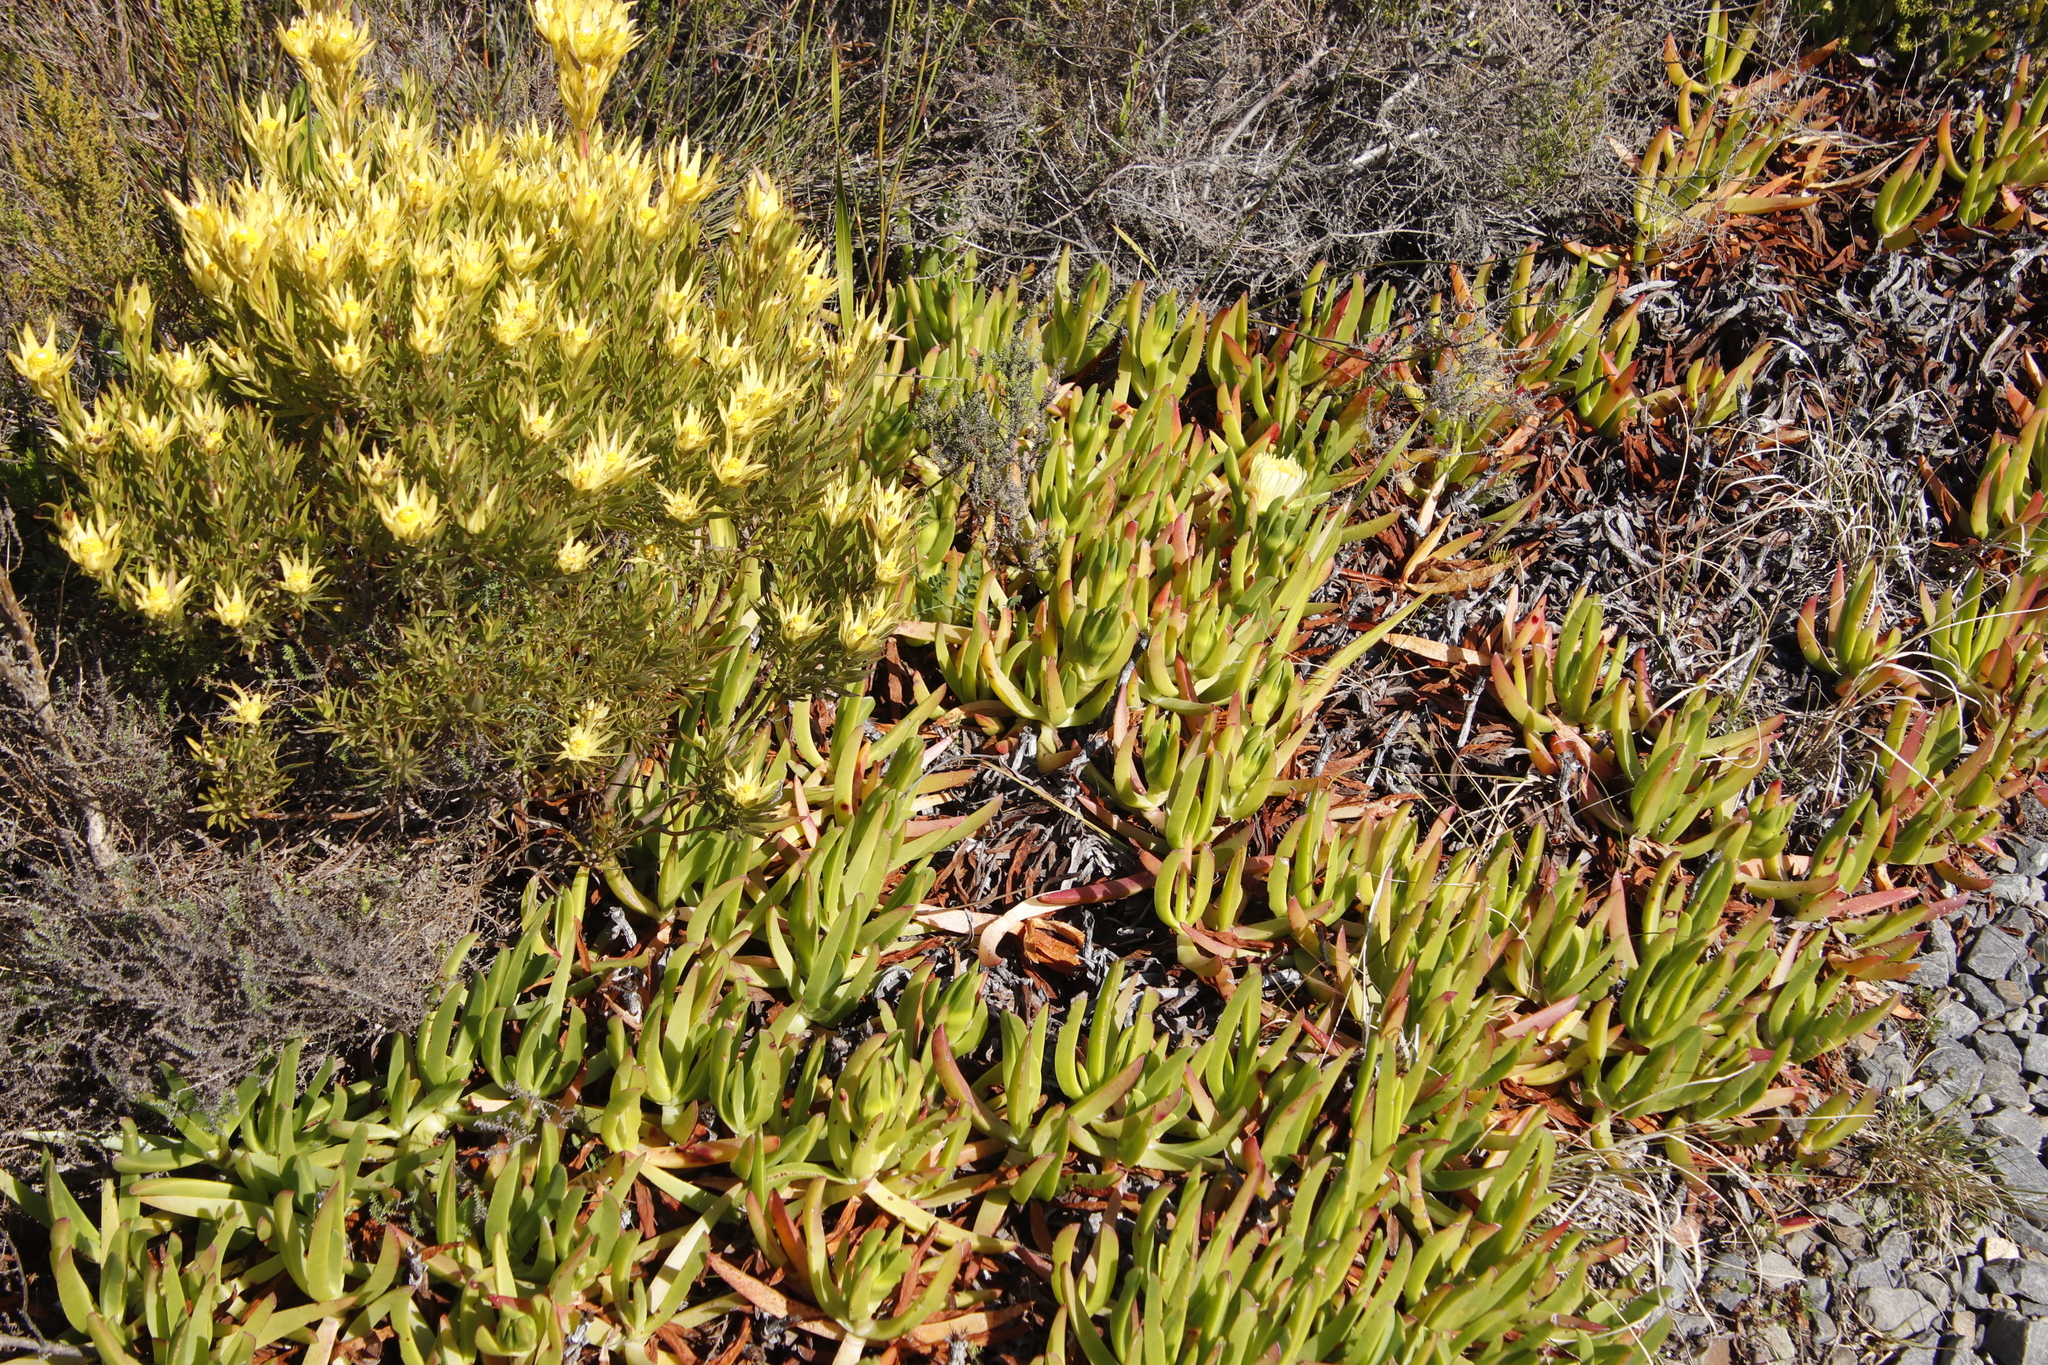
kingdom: Plantae
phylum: Tracheophyta
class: Magnoliopsida
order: Caryophyllales
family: Aizoaceae
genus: Carpobrotus
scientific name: Carpobrotus edulis
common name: Hottentot-fig
